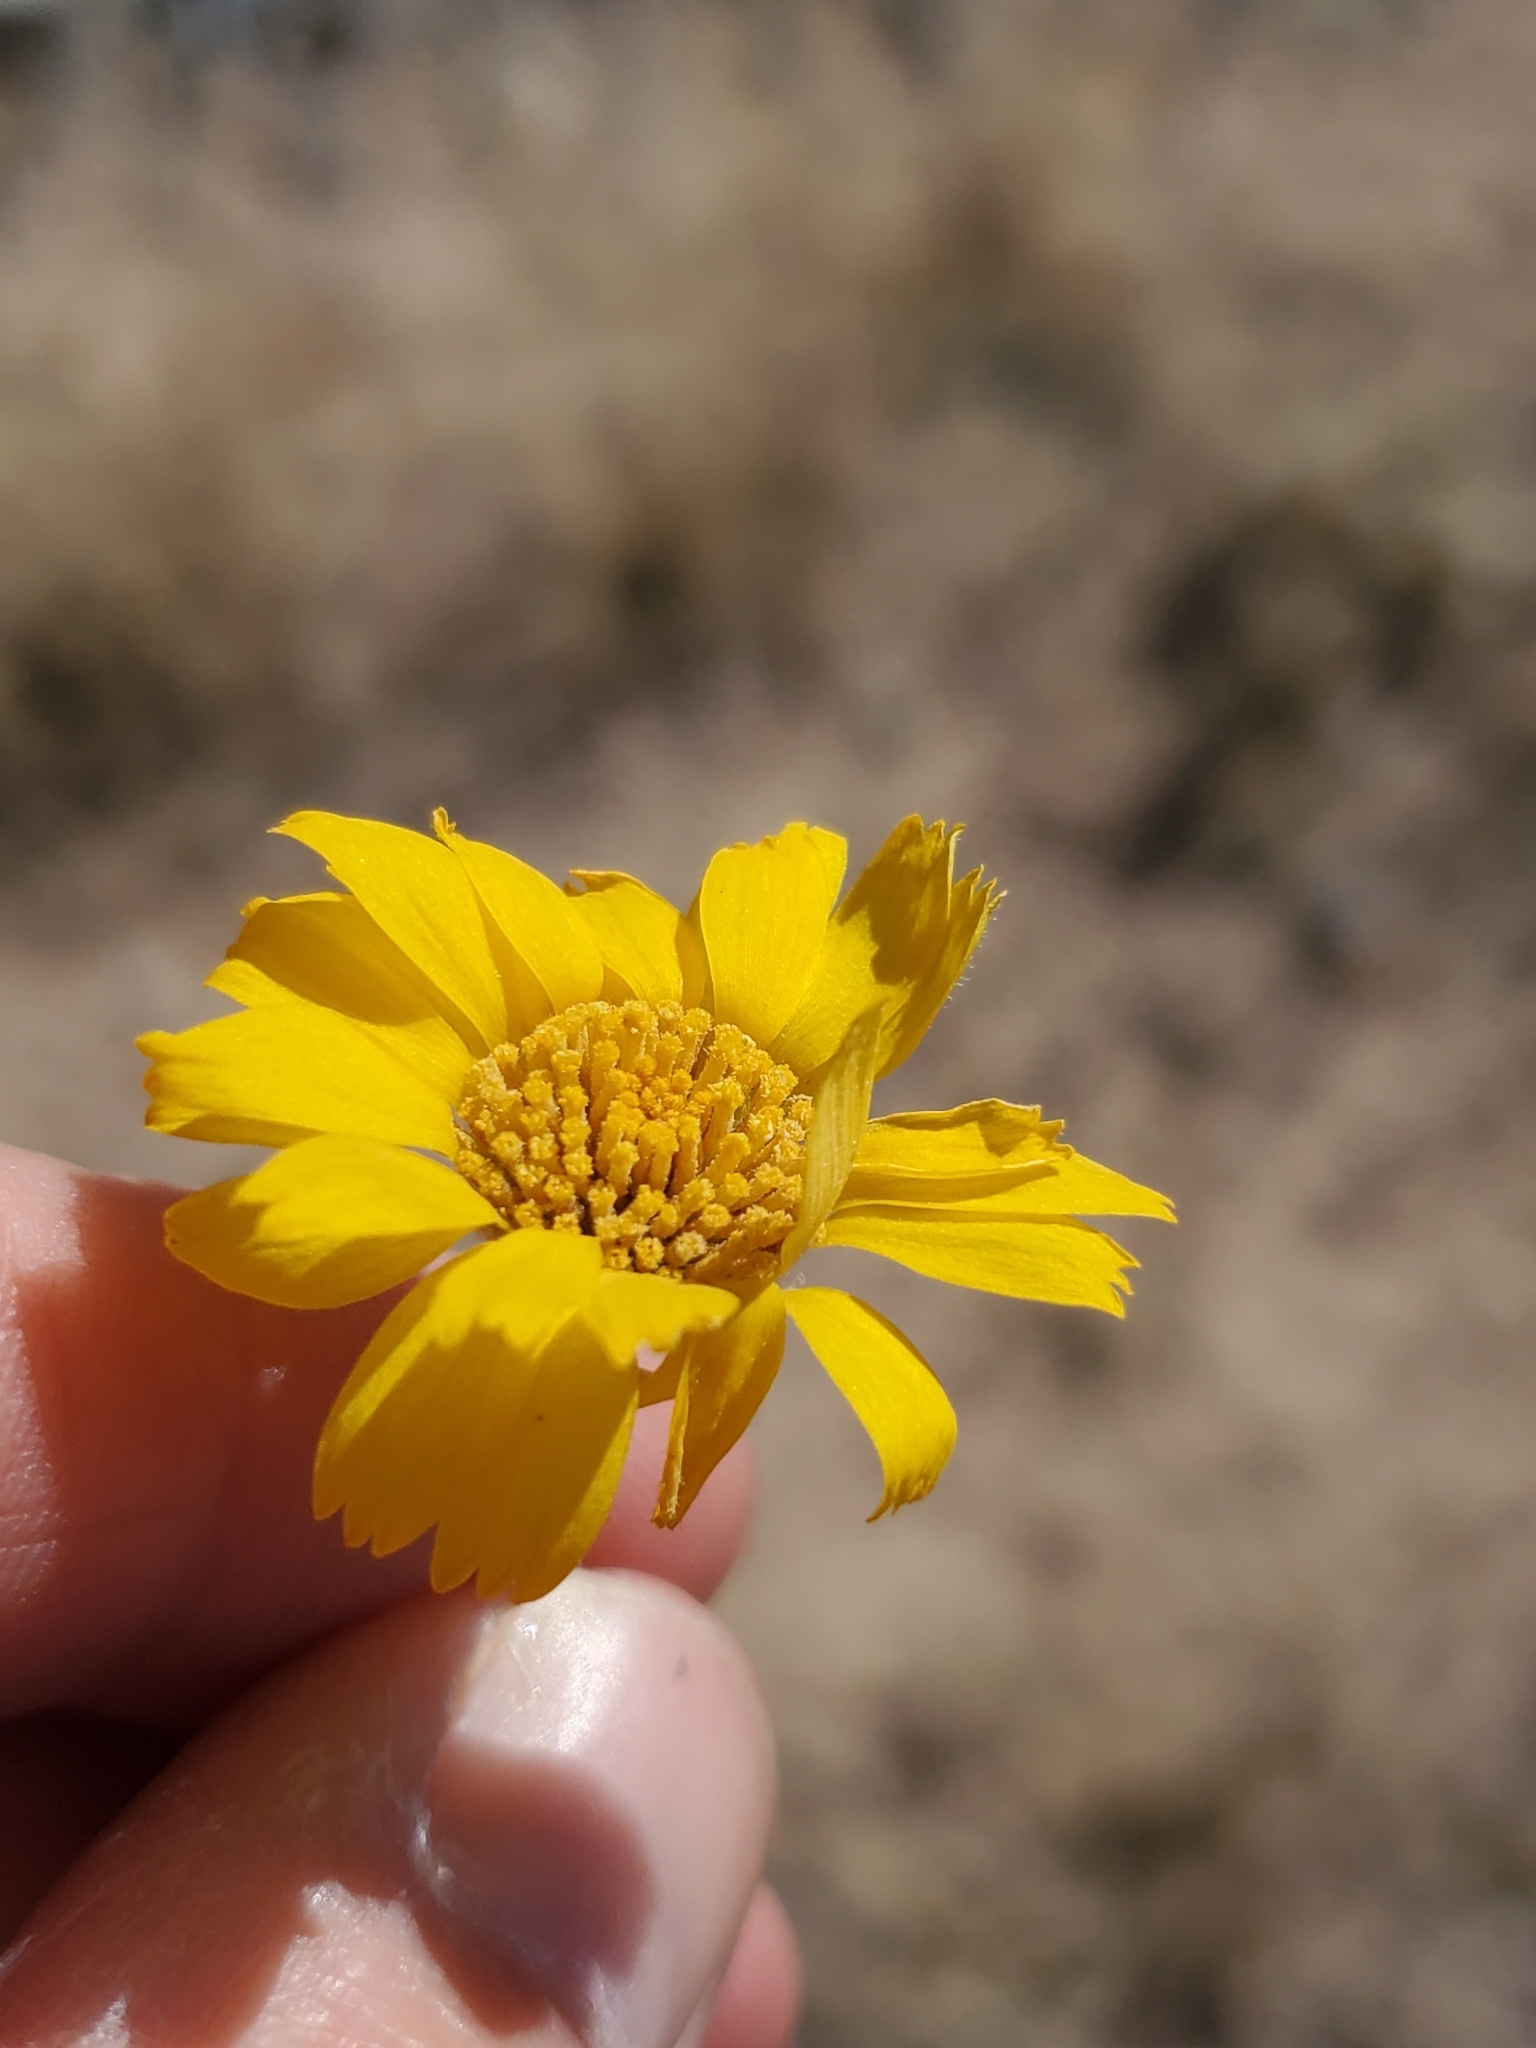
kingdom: Plantae
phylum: Tracheophyta
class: Magnoliopsida
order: Asterales
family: Asteraceae
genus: Baileya
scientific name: Baileya multiradiata
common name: Desert-marigold
